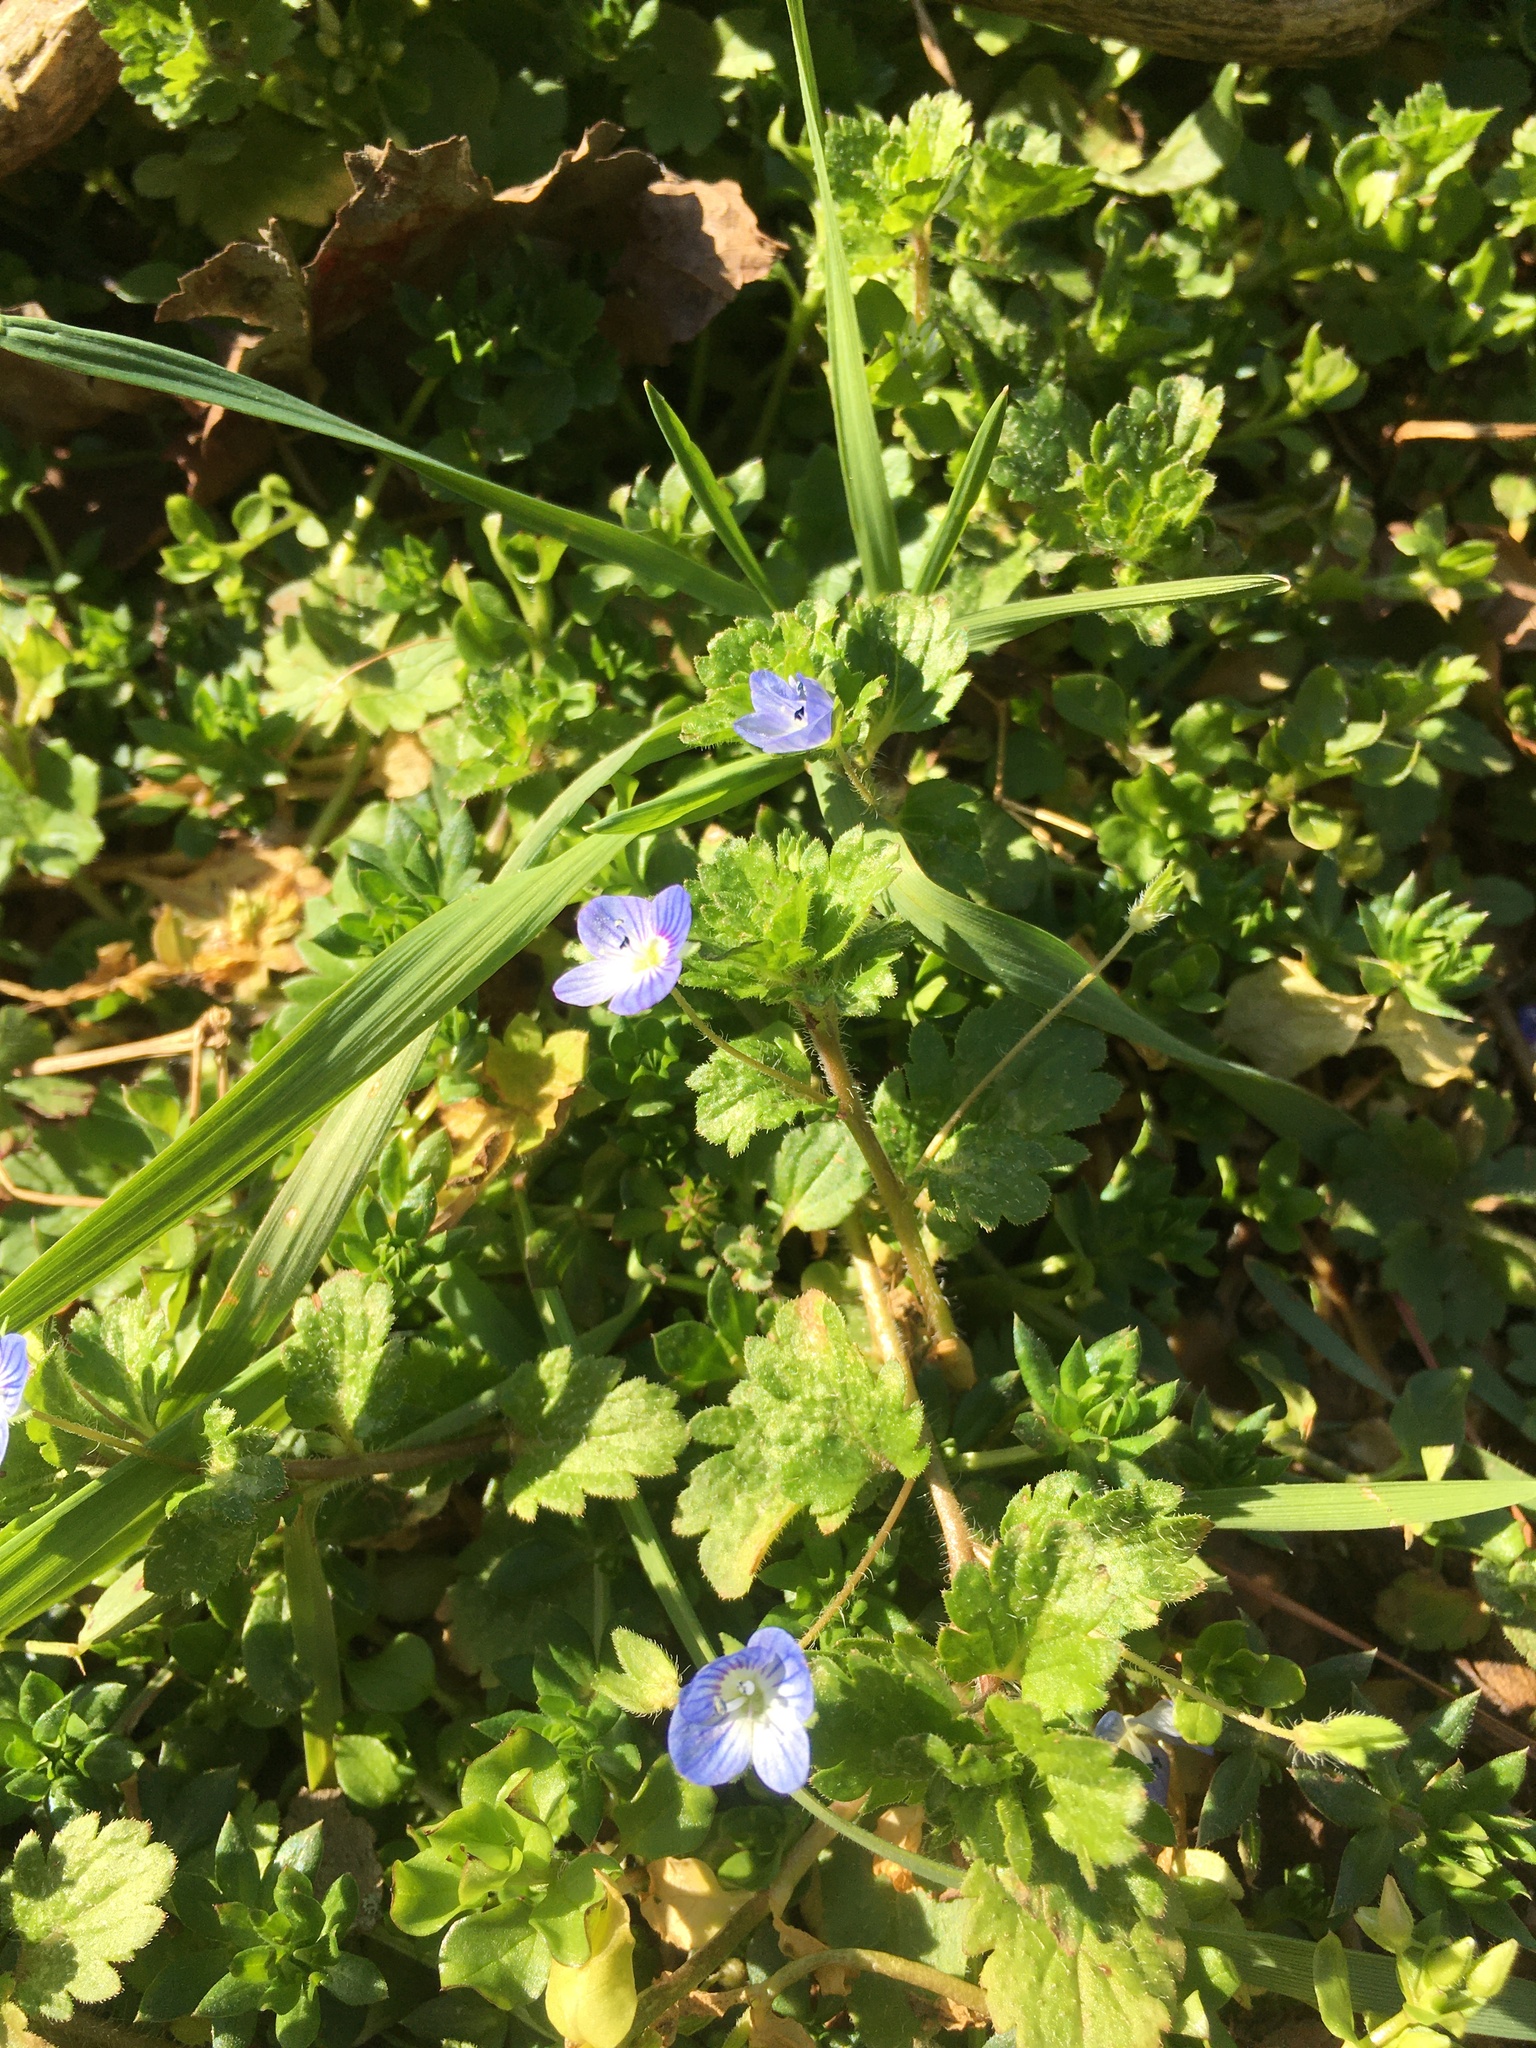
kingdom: Plantae
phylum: Tracheophyta
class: Magnoliopsida
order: Lamiales
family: Plantaginaceae
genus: Veronica
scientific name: Veronica persica
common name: Common field-speedwell
